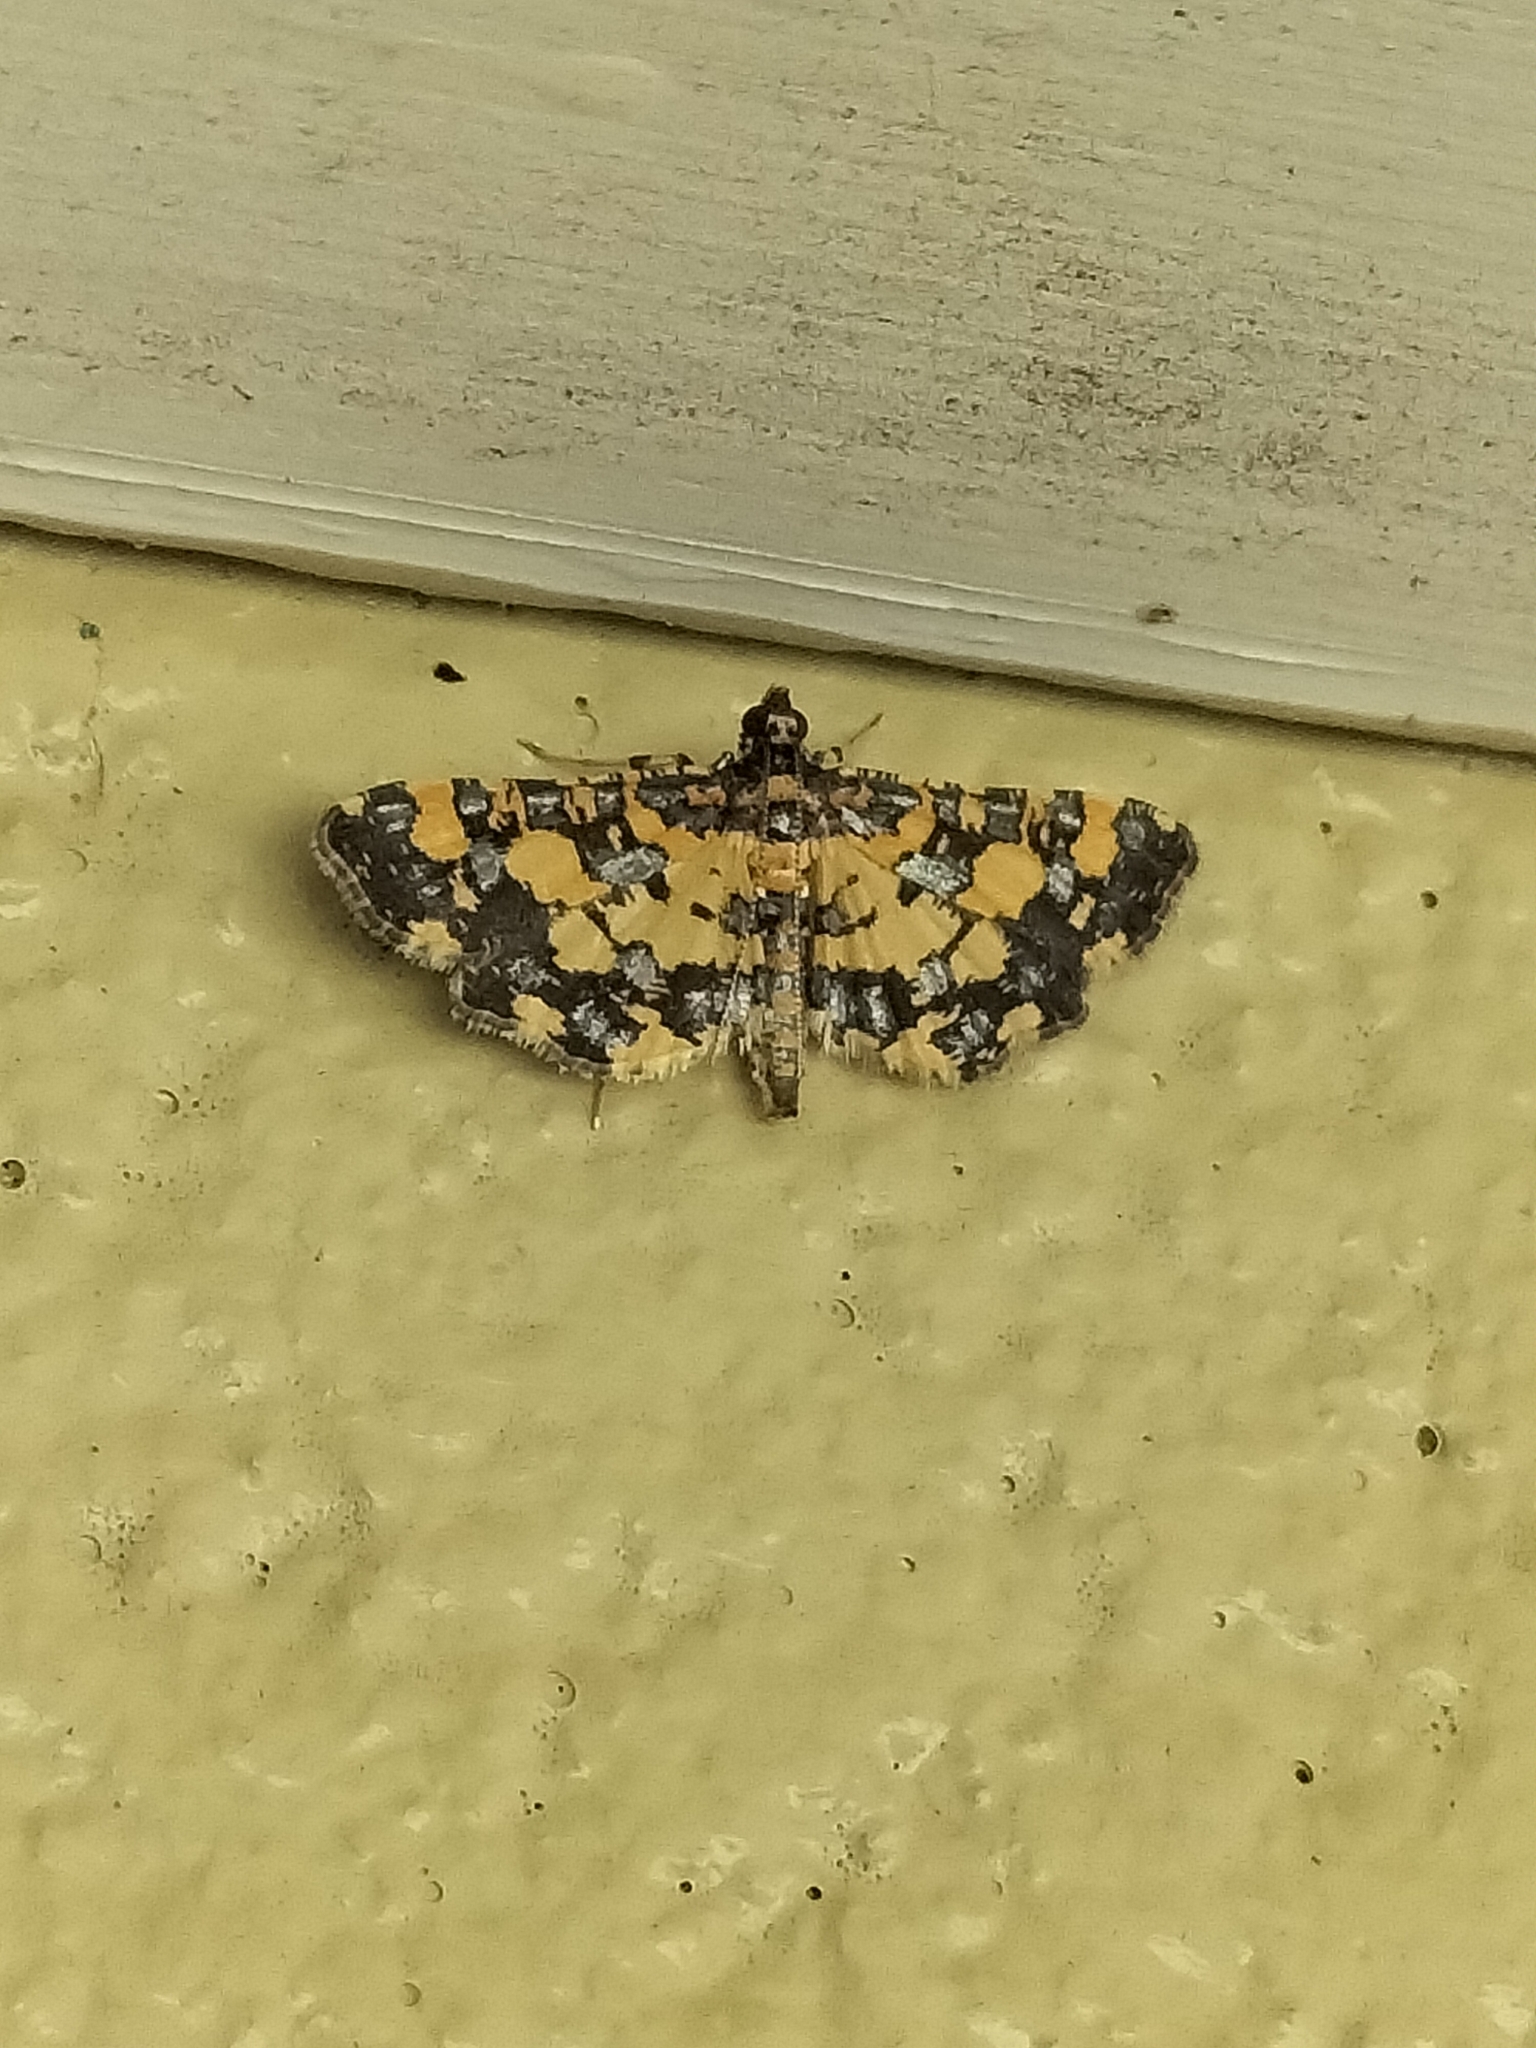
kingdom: Animalia
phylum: Arthropoda
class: Insecta
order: Lepidoptera
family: Crambidae
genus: Eurrhyparodes
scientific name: Eurrhyparodes tricoloralis
